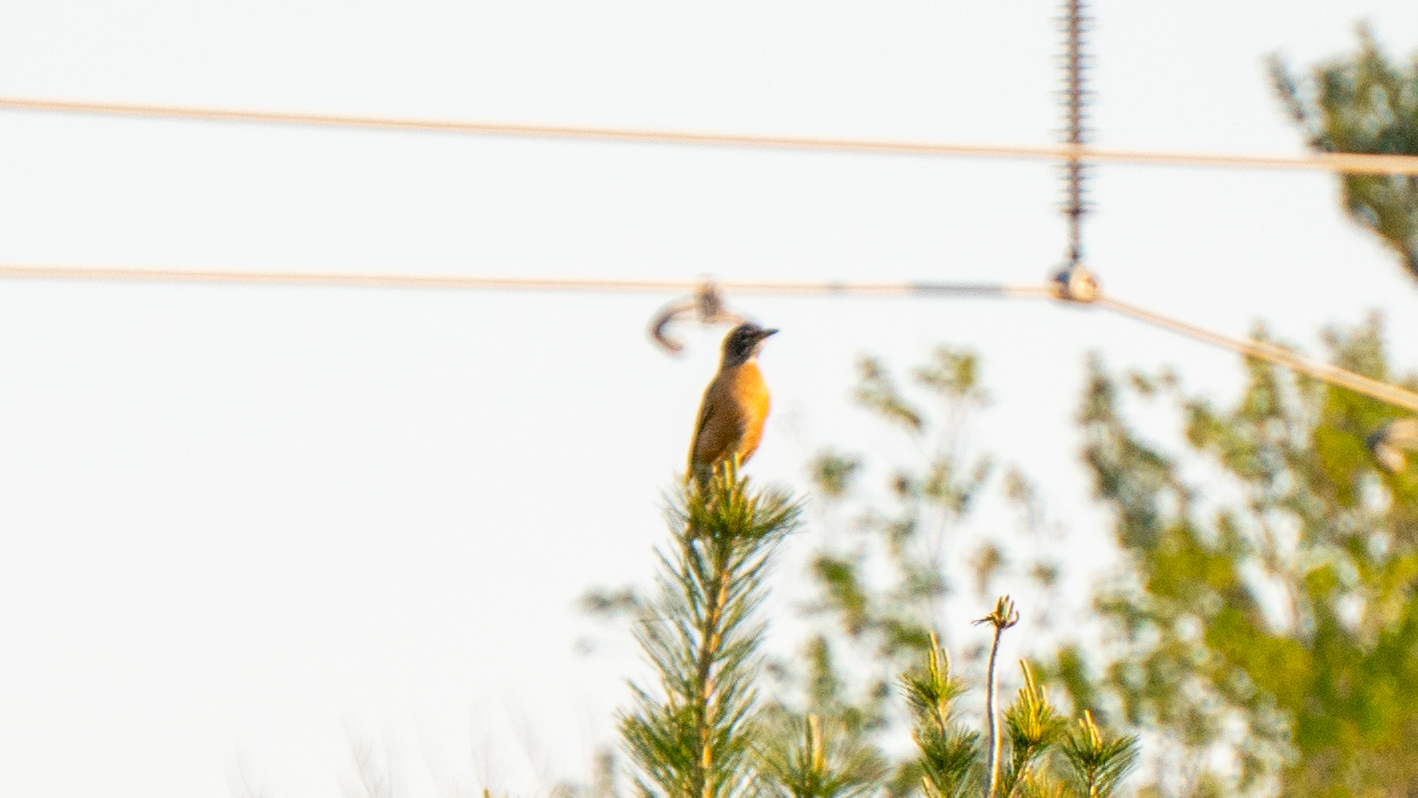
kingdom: Animalia
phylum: Chordata
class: Aves
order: Passeriformes
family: Turdidae
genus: Turdus
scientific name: Turdus migratorius
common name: American robin
